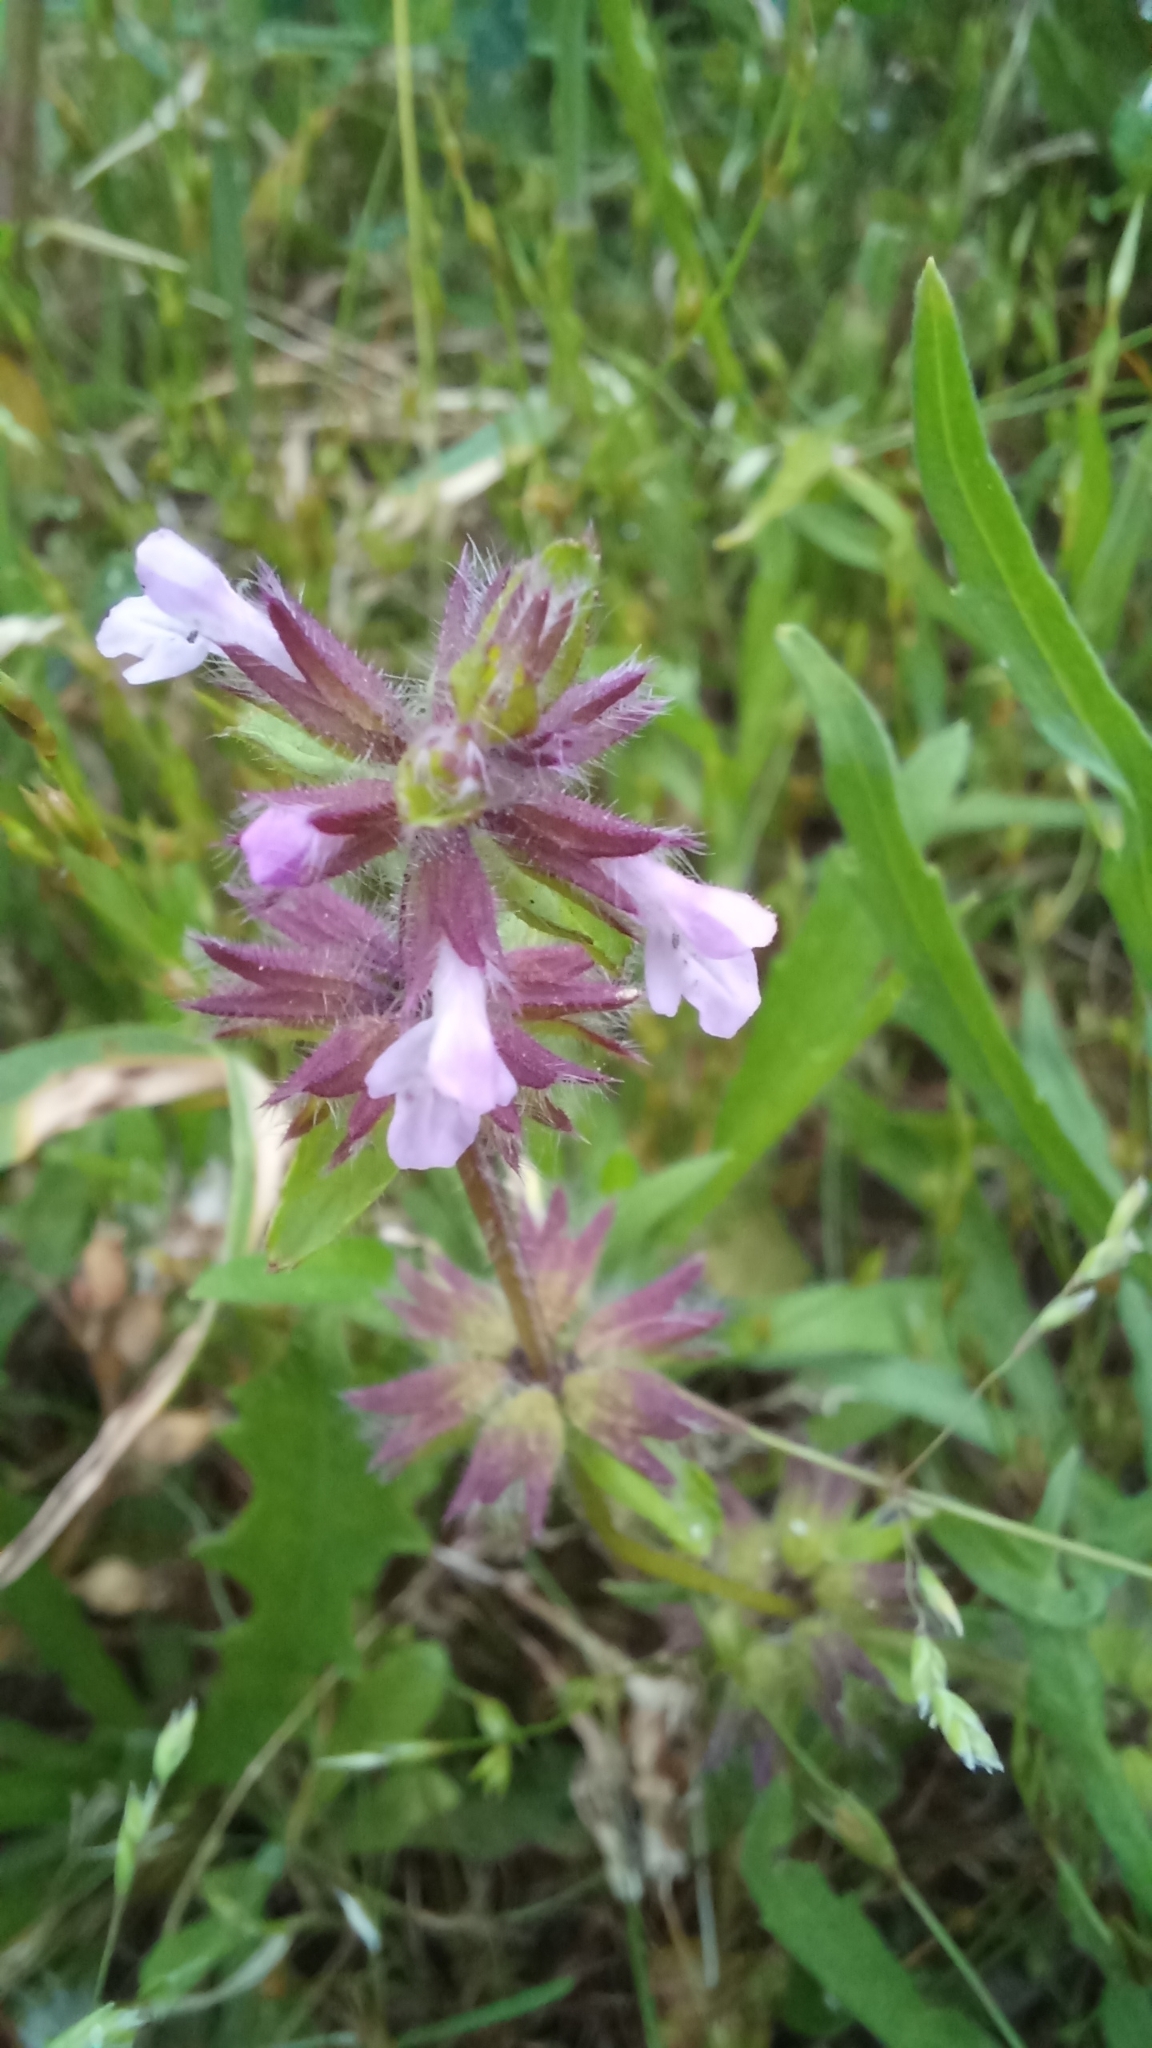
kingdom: Plantae
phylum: Tracheophyta
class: Magnoliopsida
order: Lamiales
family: Lamiaceae
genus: Stachys
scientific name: Stachys arvensis
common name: Field woundwort
